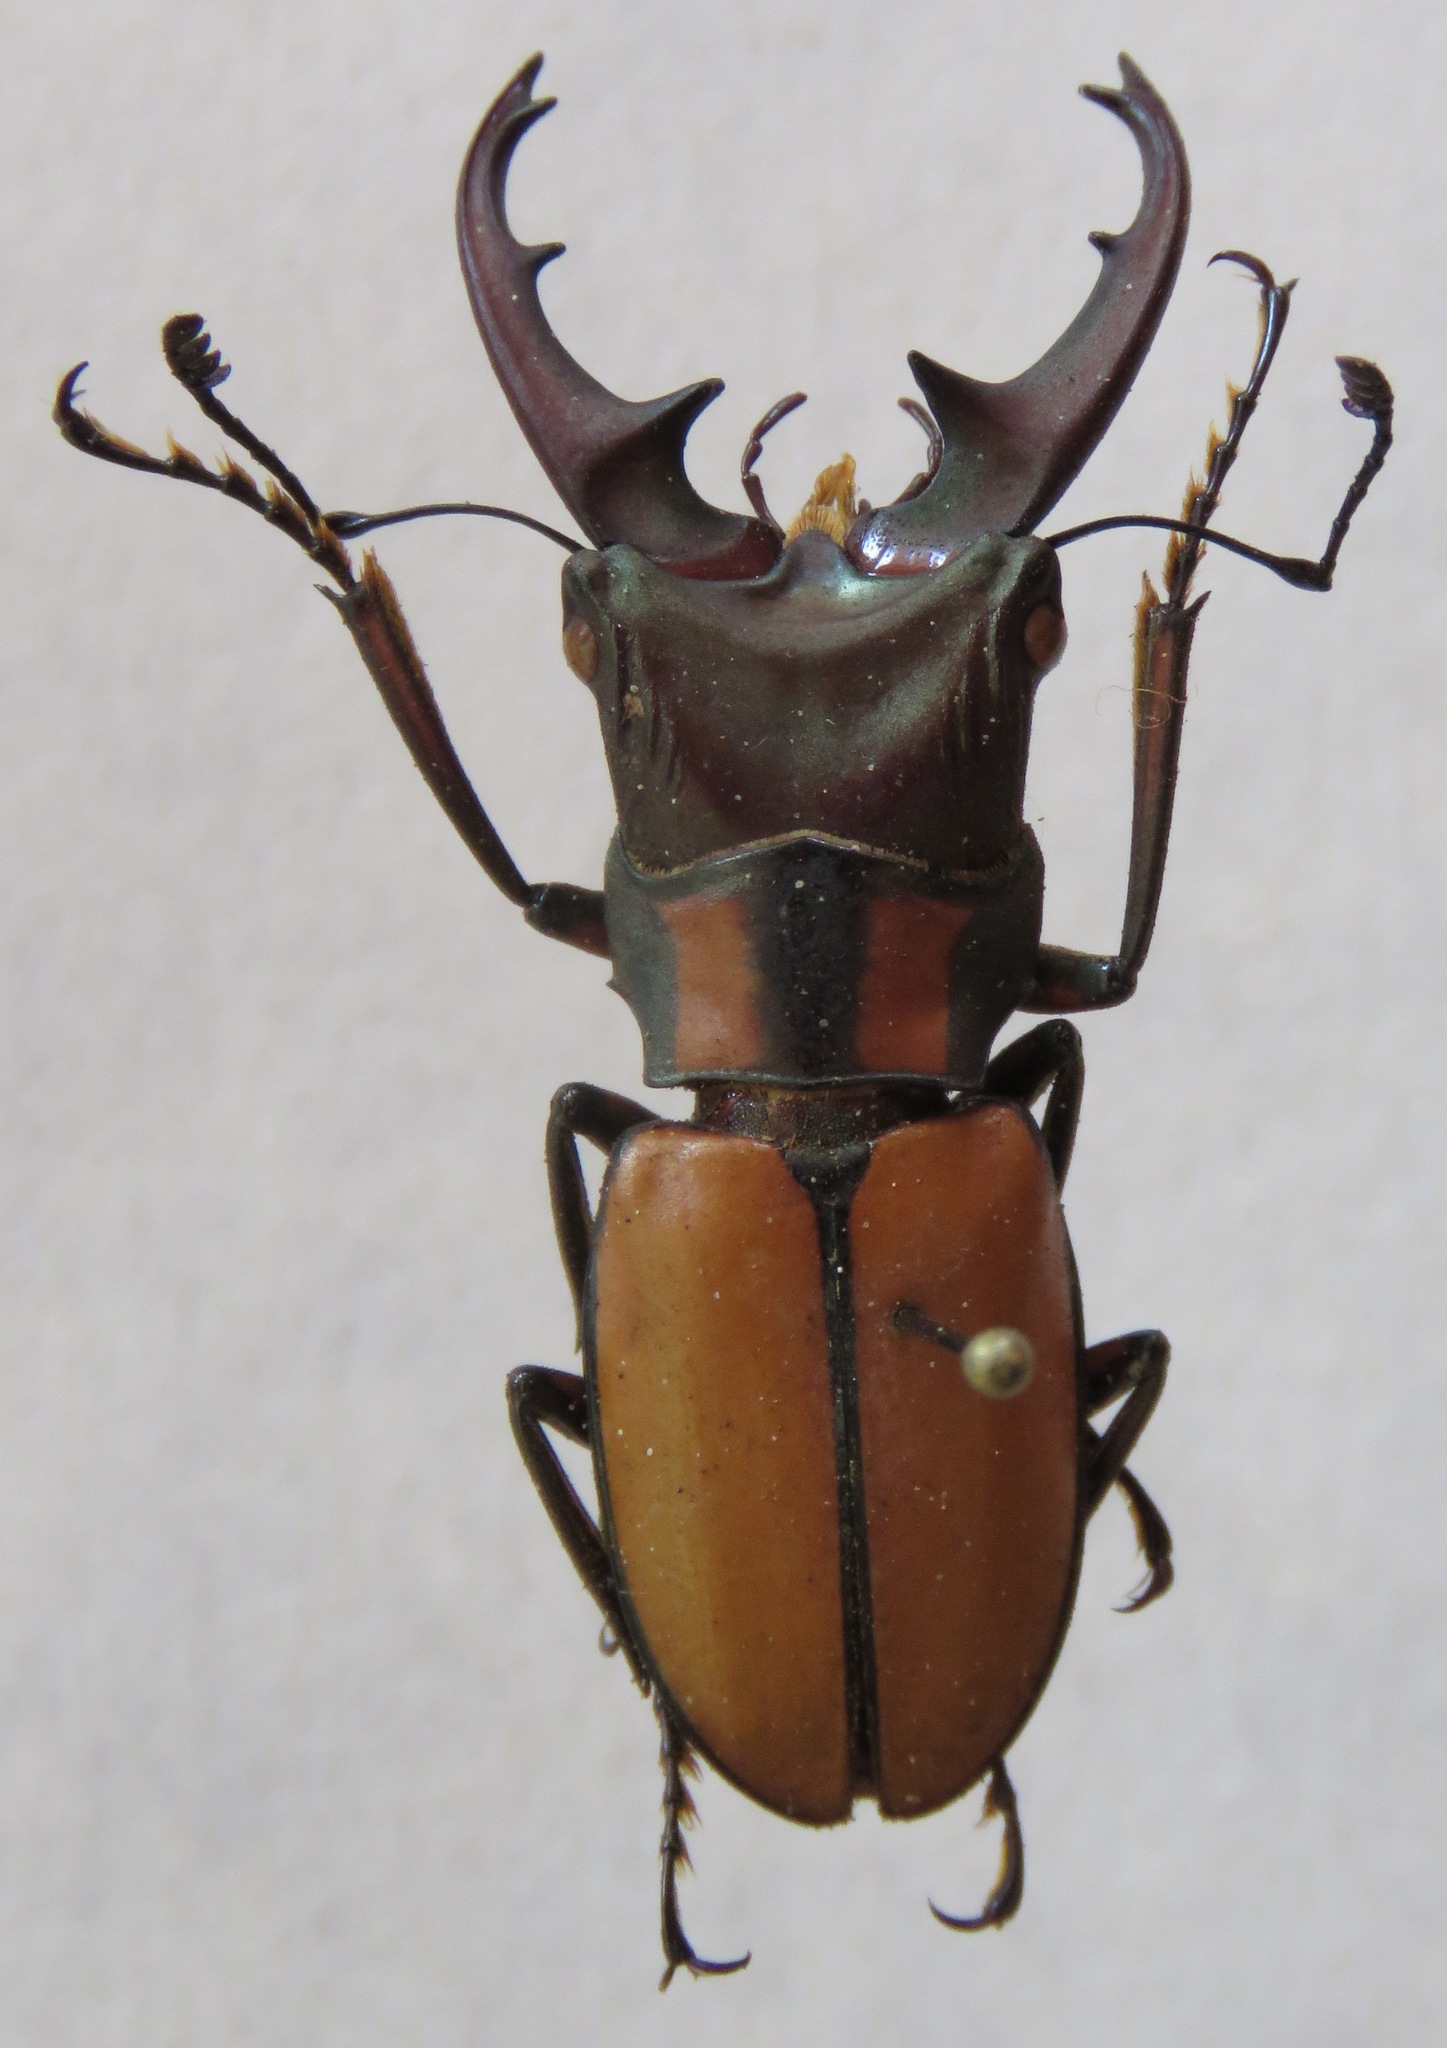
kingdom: Animalia
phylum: Arthropoda
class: Insecta
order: Coleoptera
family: Lucanidae
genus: Cyclommatinus
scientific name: Cyclommatinus albersii
